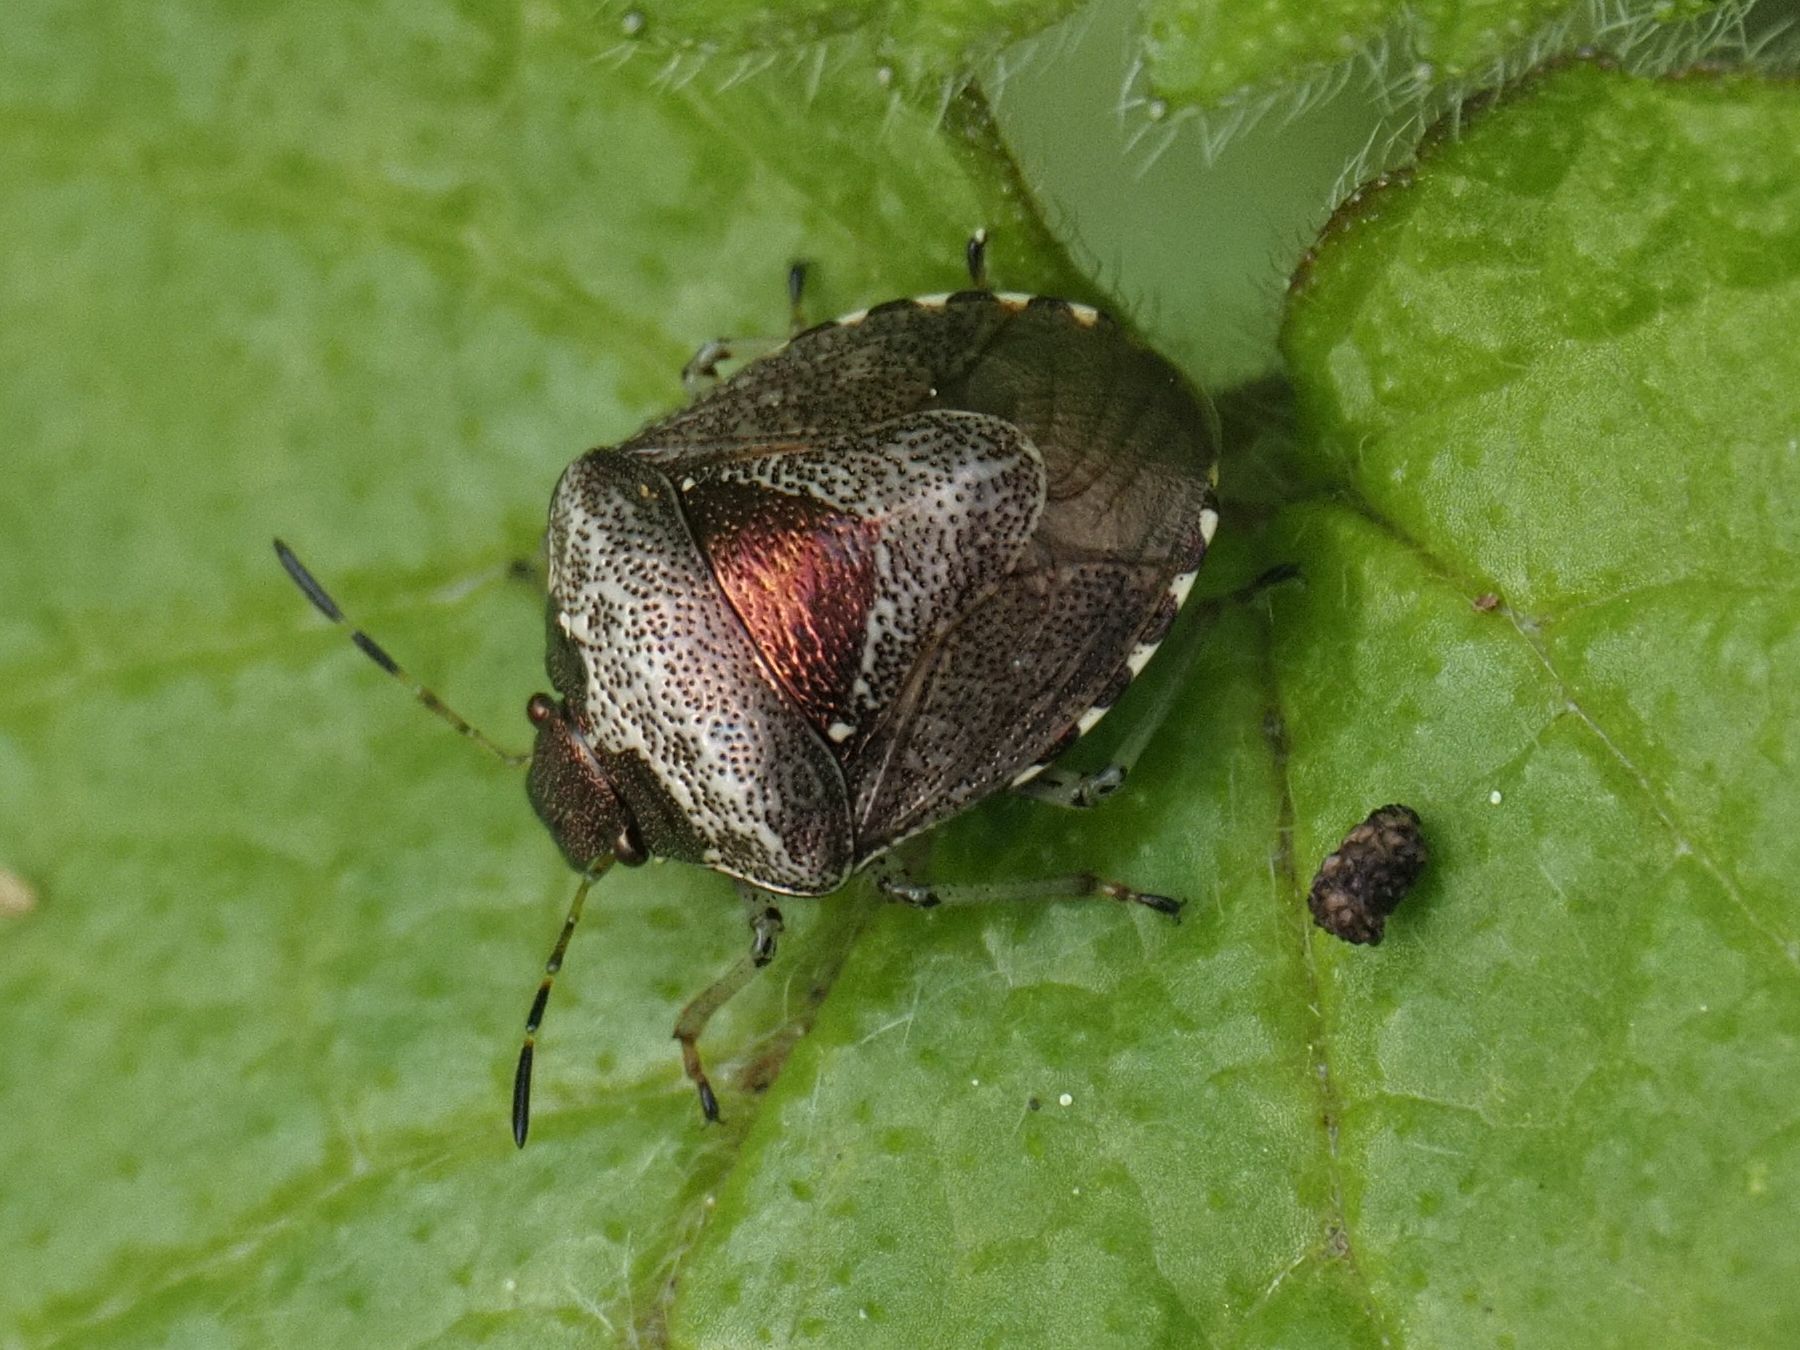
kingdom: Animalia
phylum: Arthropoda
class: Insecta
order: Hemiptera
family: Pentatomidae
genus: Eysarcoris
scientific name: Eysarcoris venustissimus
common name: Woundwort shieldbug
